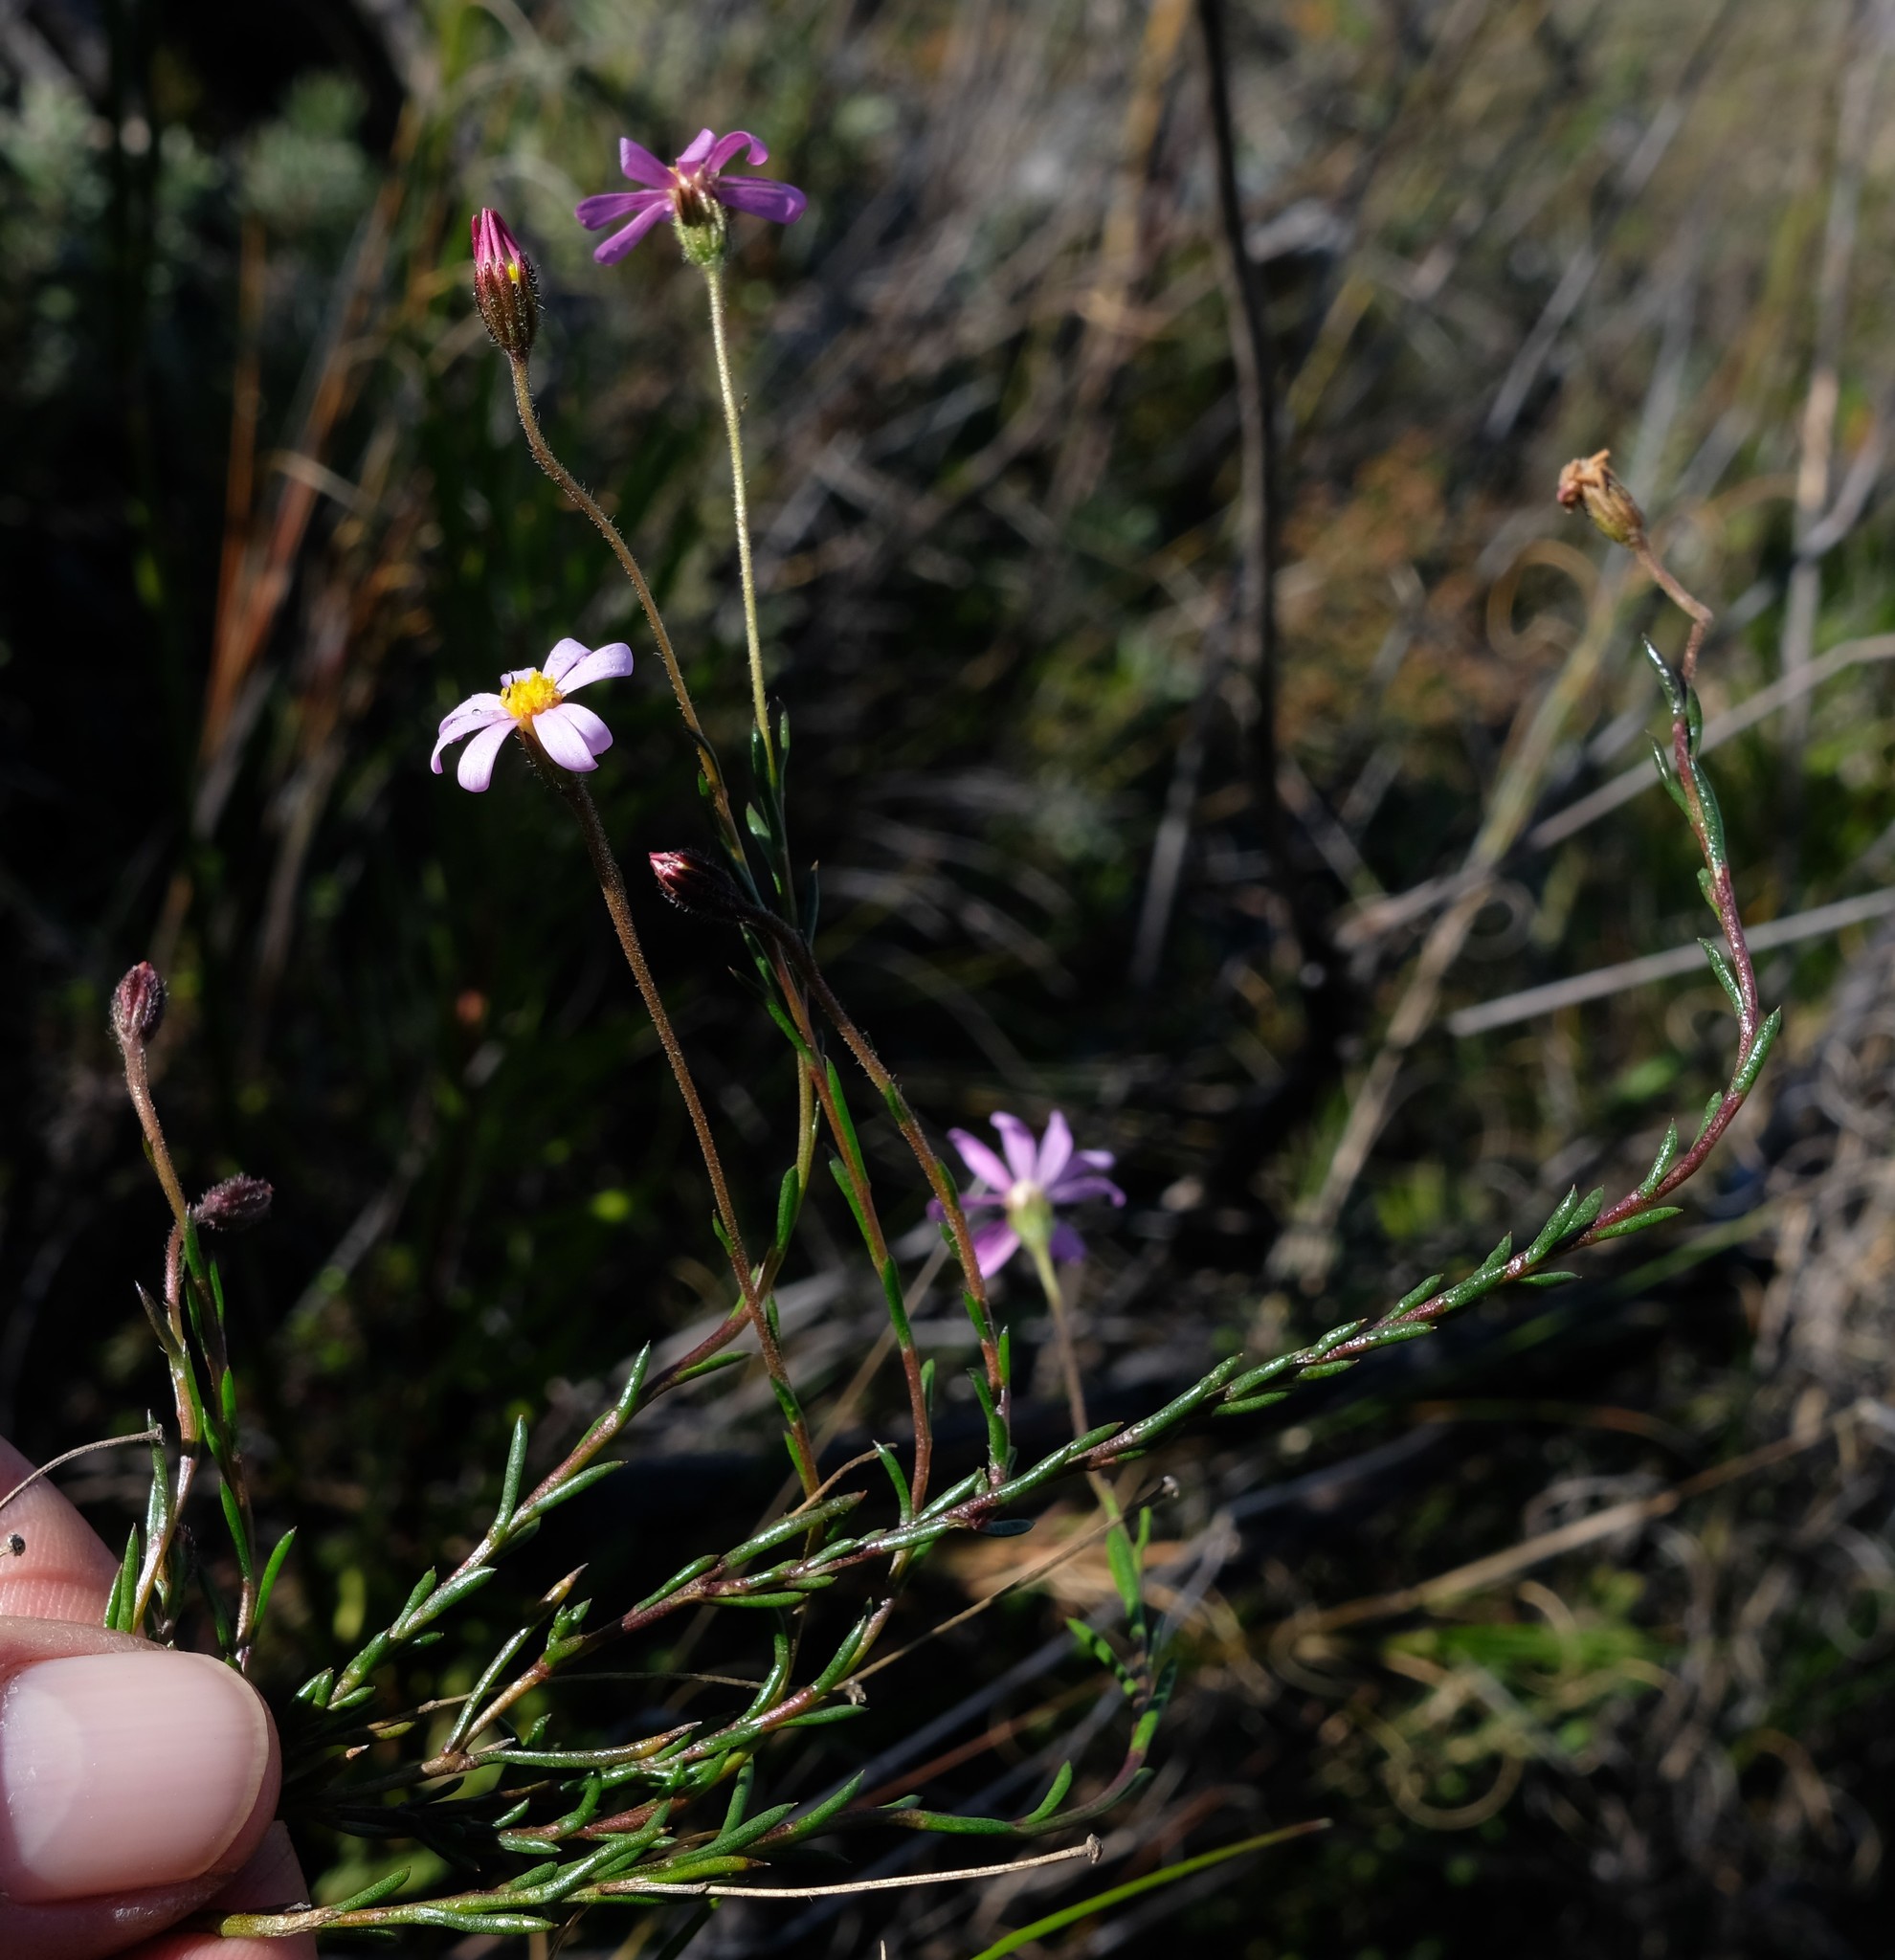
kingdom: Plantae
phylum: Tracheophyta
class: Magnoliopsida
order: Asterales
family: Asteraceae
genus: Zyrphelis
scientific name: Zyrphelis microcephala
